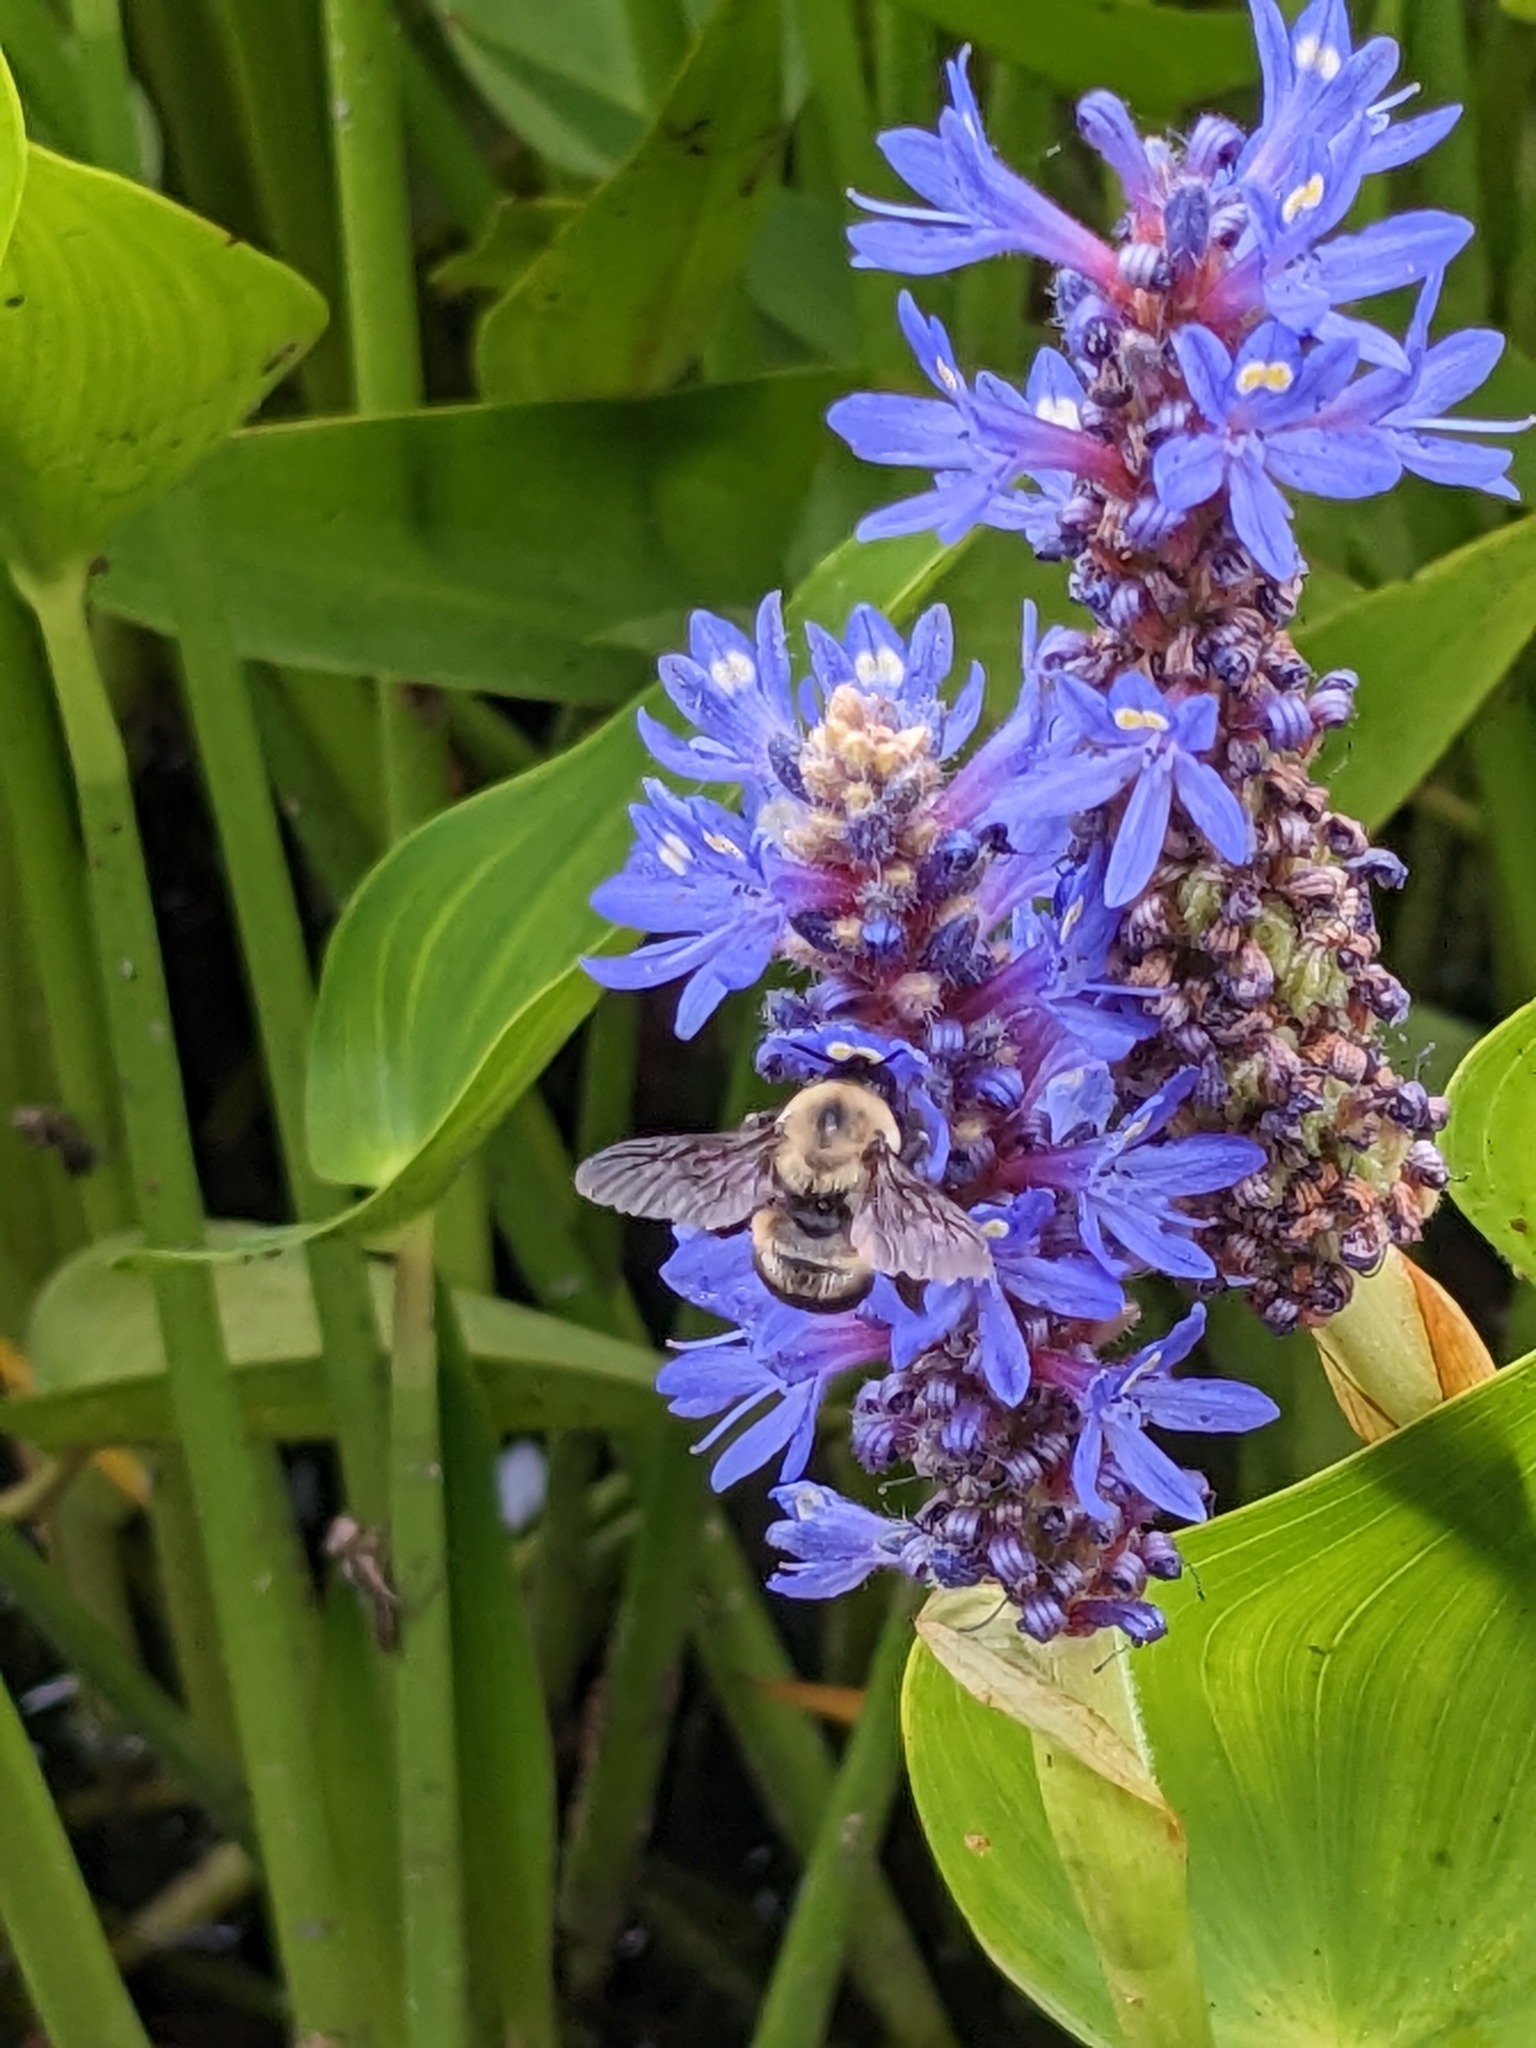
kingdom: Animalia
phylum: Arthropoda
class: Insecta
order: Hymenoptera
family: Apidae
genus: Bombus
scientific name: Bombus griseocollis
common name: Brown-belted bumble bee
